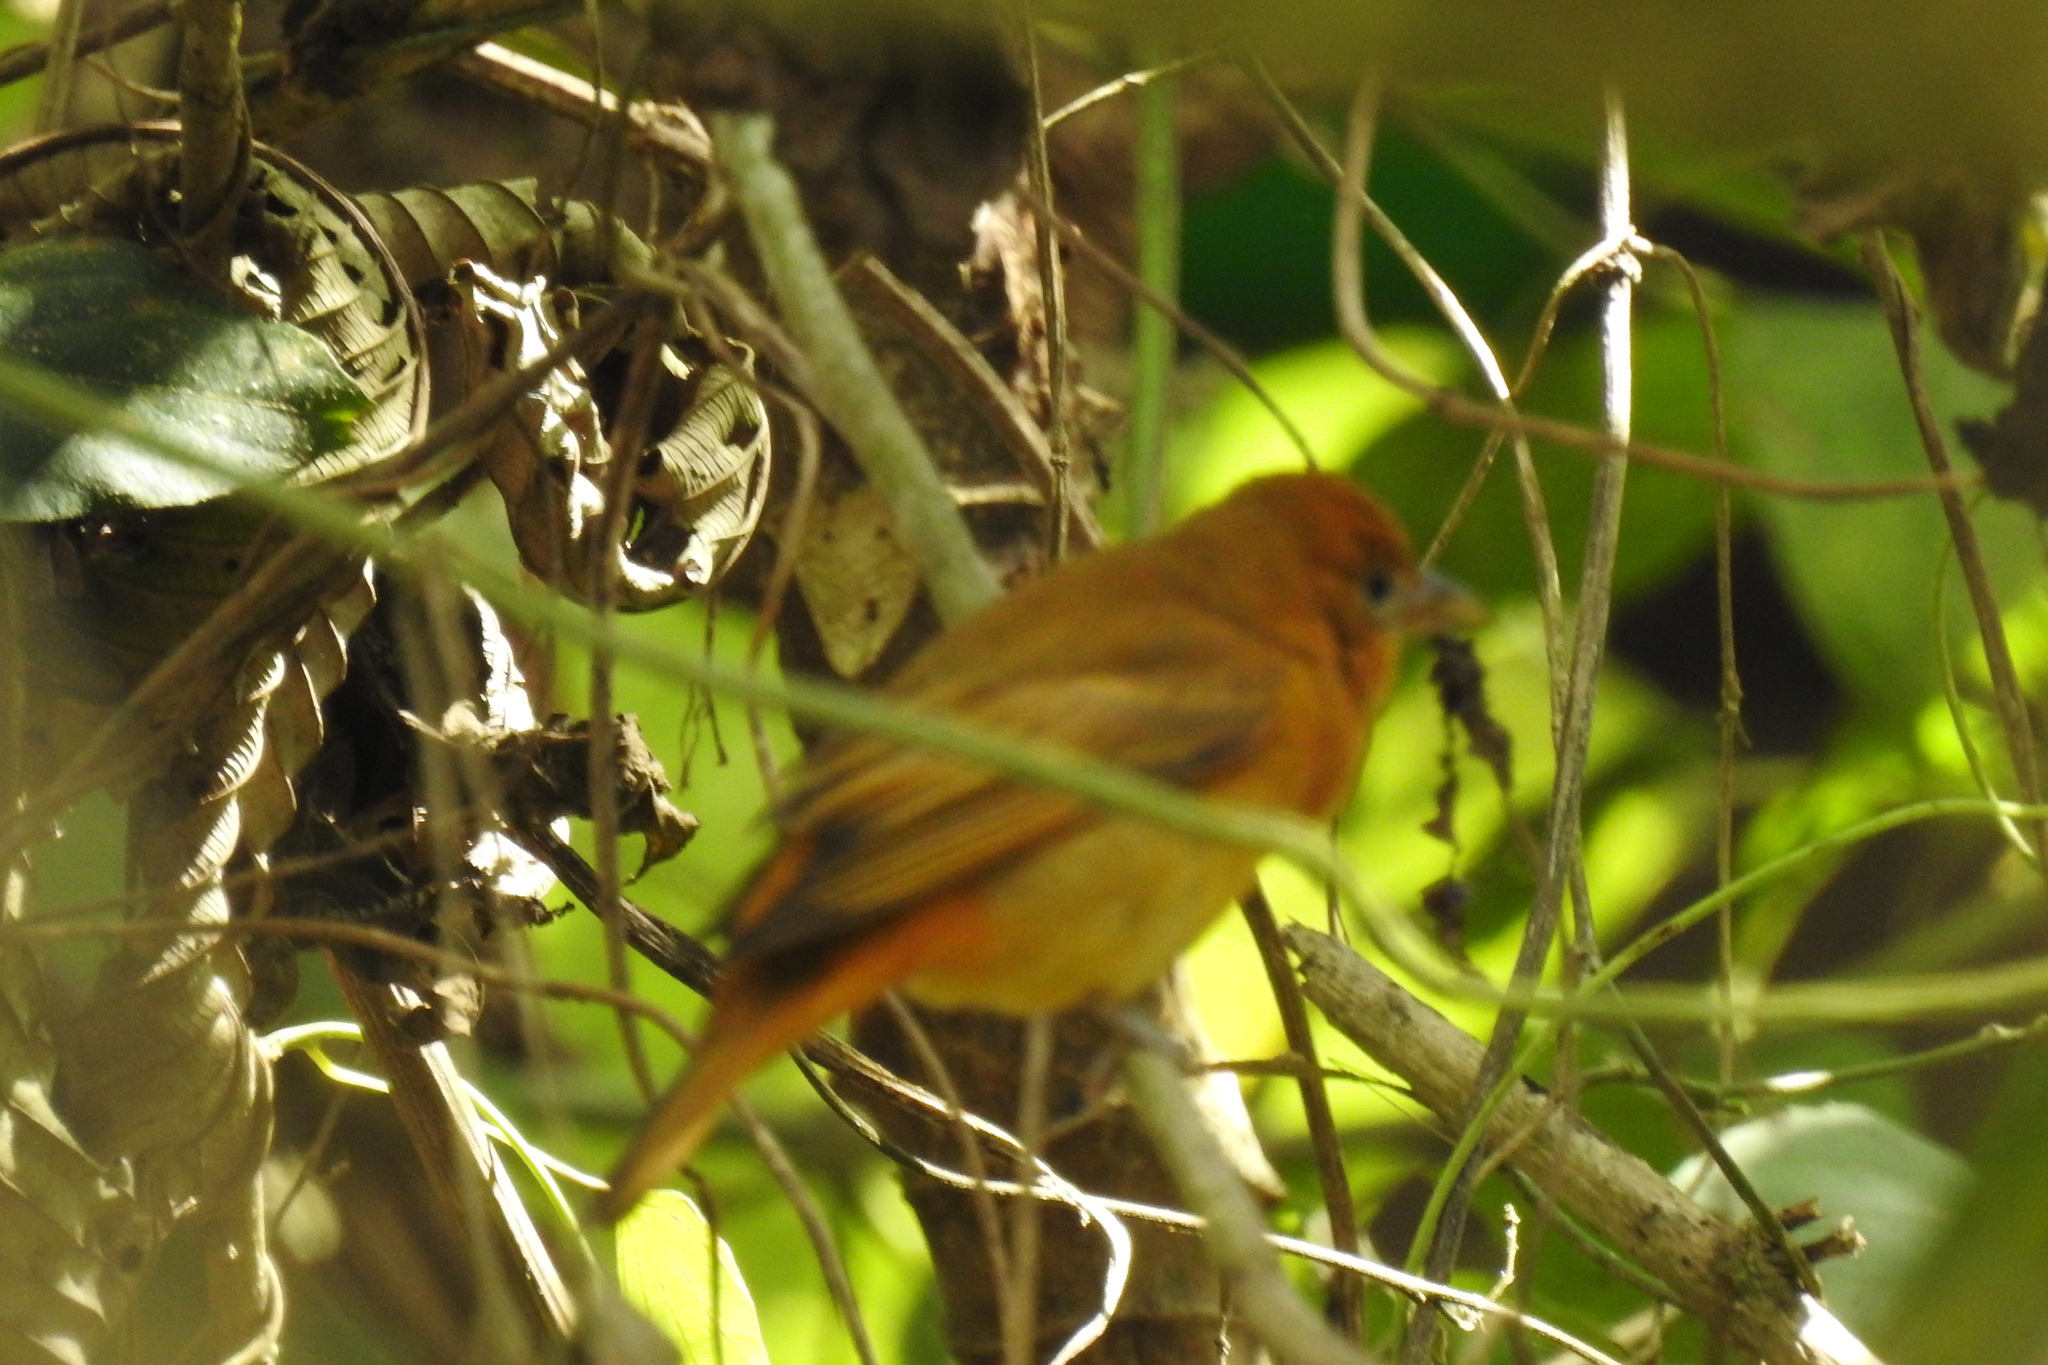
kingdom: Animalia
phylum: Chordata
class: Aves
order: Passeriformes
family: Cardinalidae
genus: Piranga
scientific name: Piranga rubra
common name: Summer tanager
